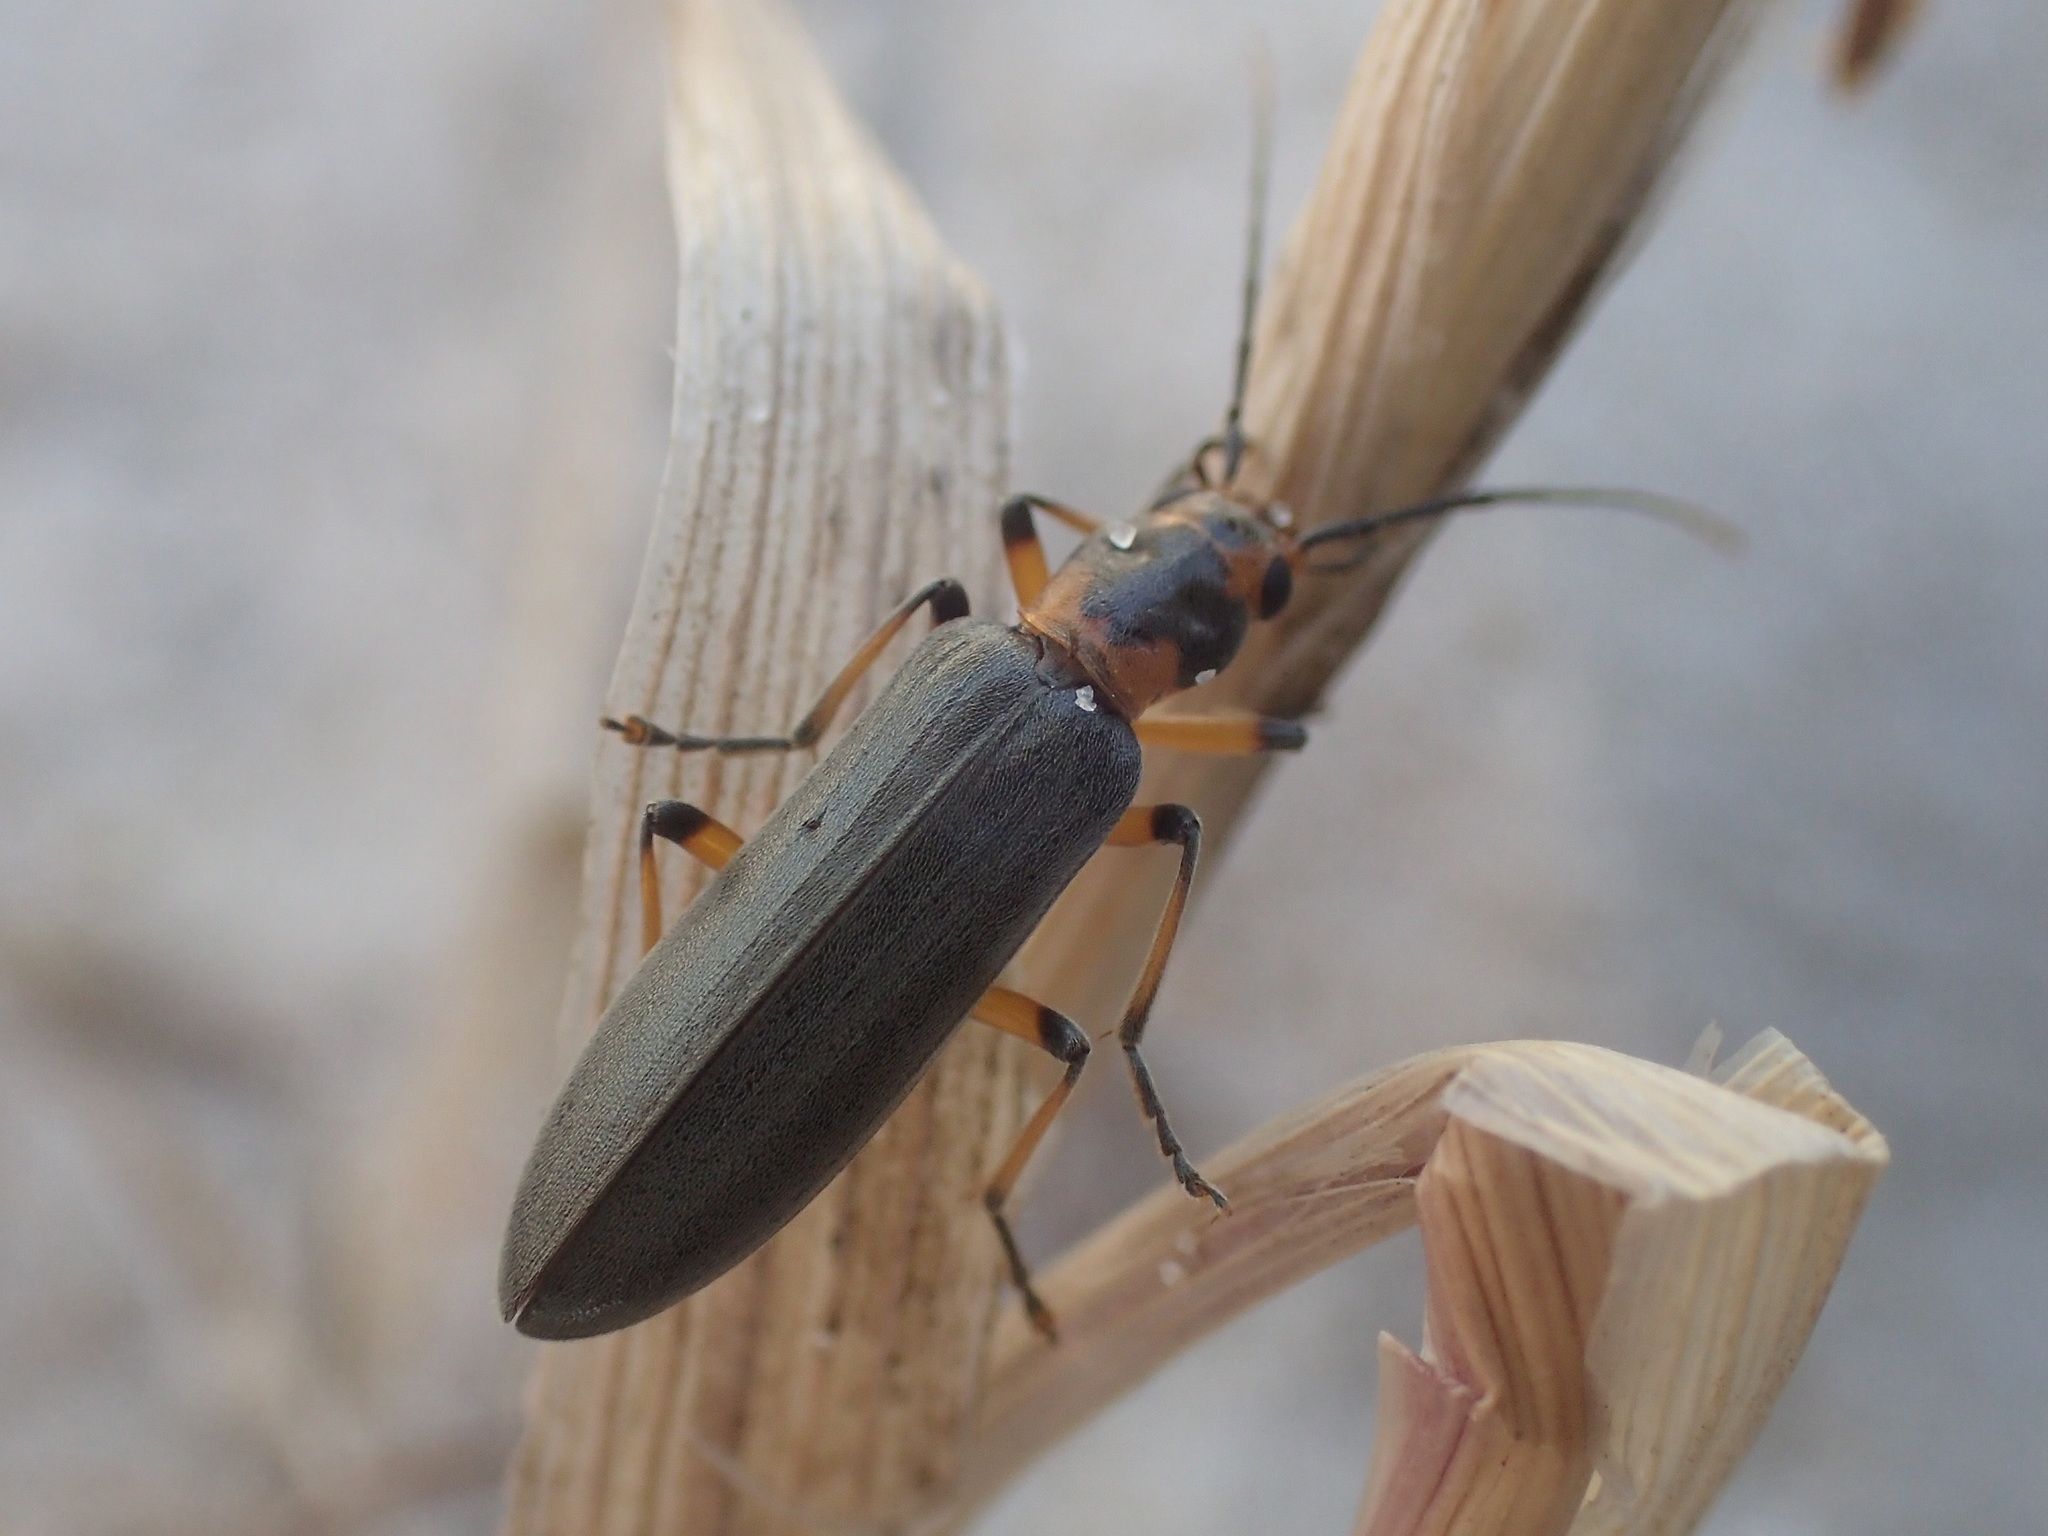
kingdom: Animalia
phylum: Arthropoda
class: Insecta
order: Coleoptera
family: Oedemeridae
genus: Copidita
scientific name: Copidita
